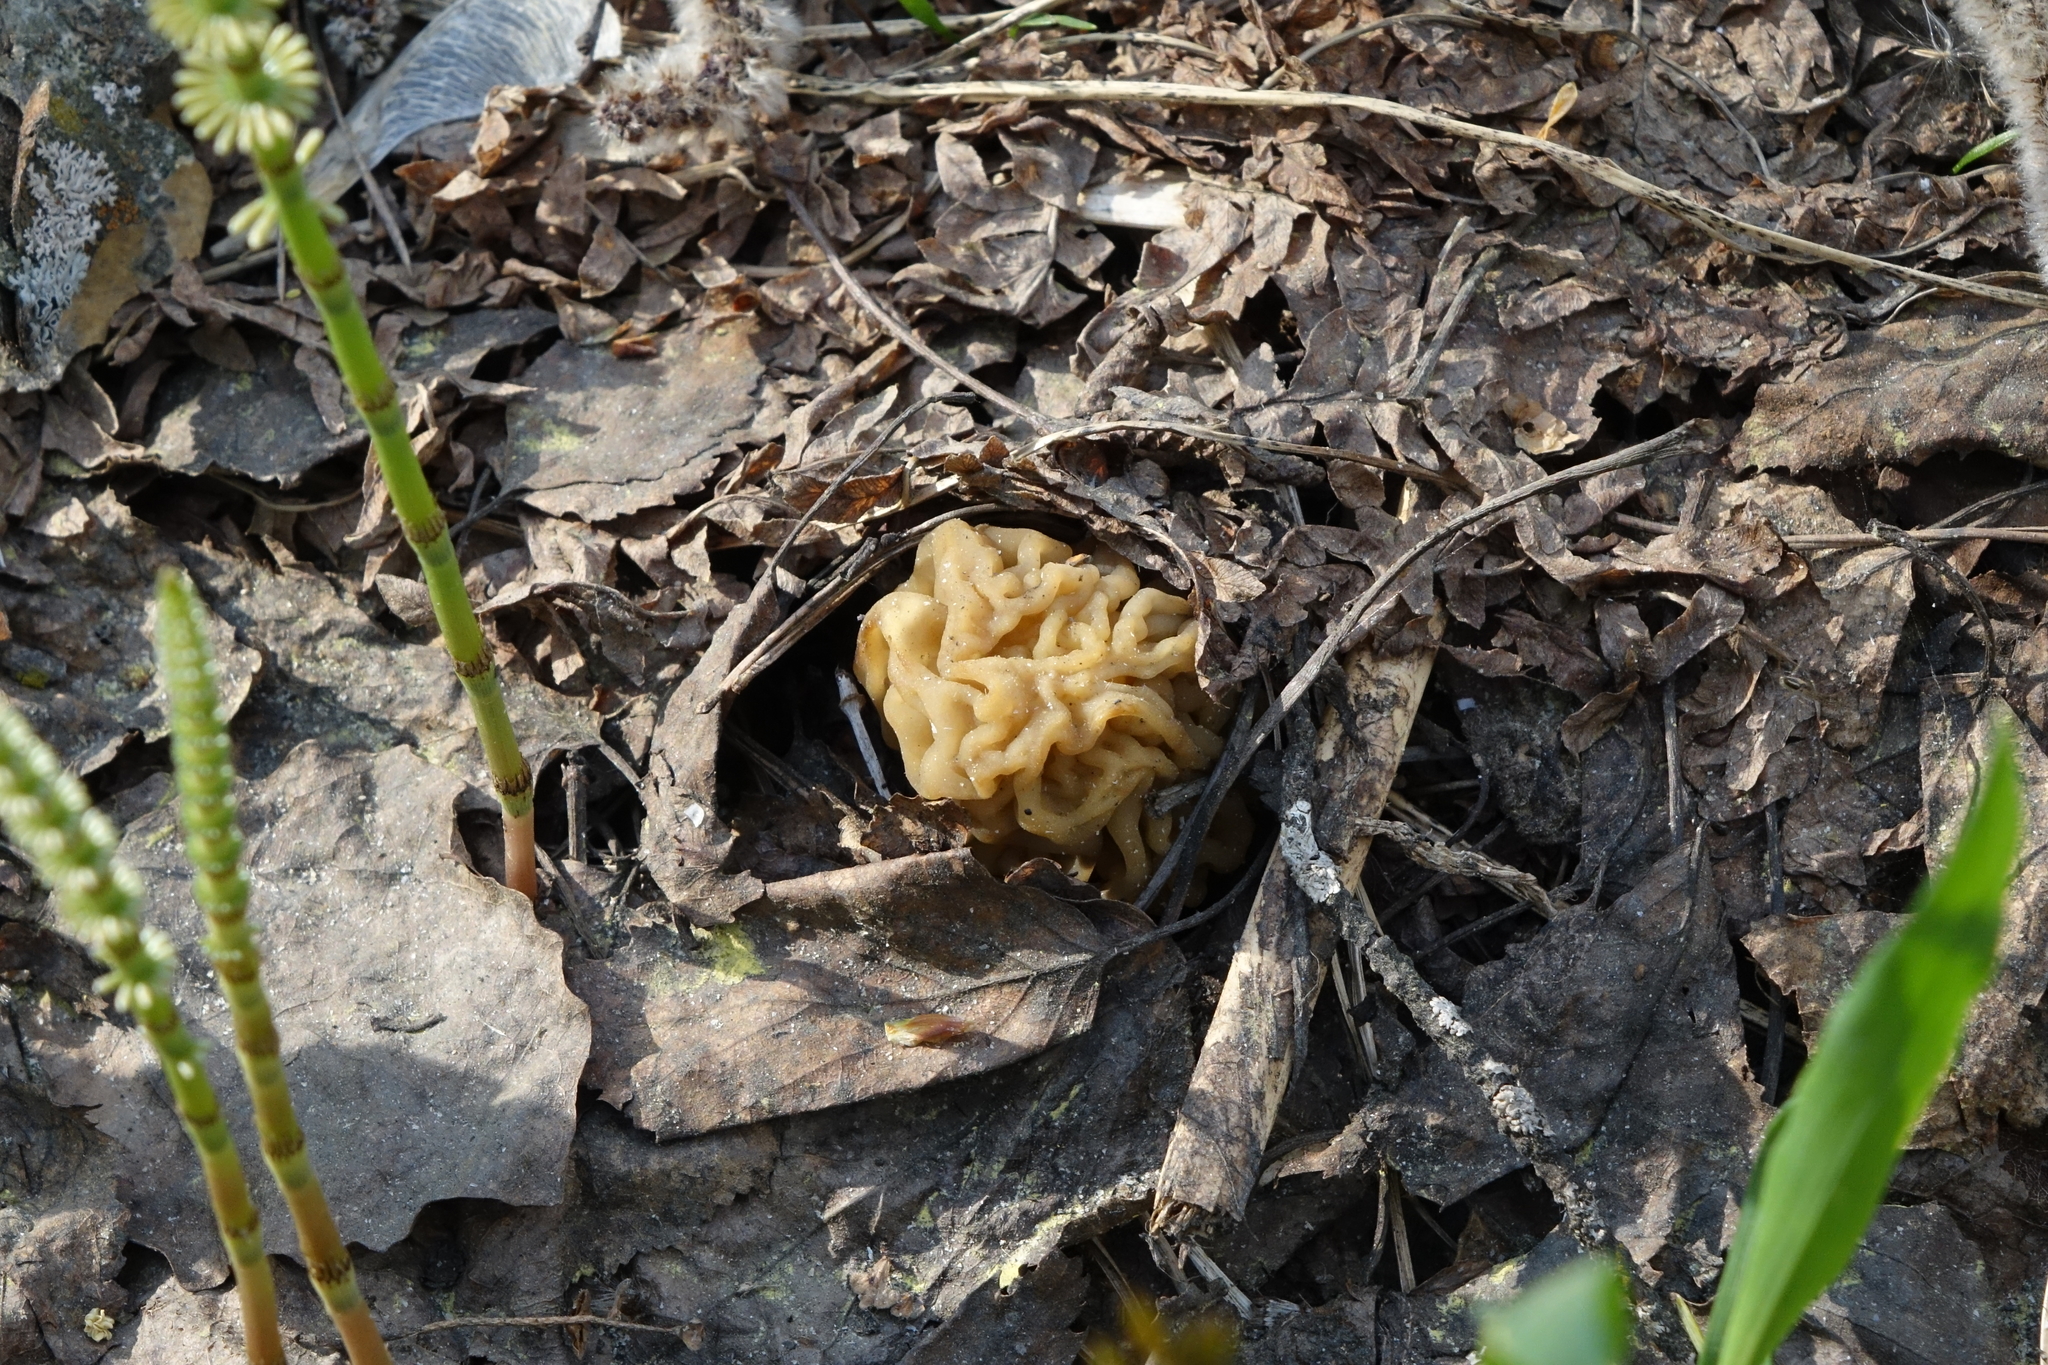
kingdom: Fungi
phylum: Ascomycota
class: Pezizomycetes
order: Pezizales
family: Morchellaceae
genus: Verpa
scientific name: Verpa bohemica
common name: Wrinkled thimble morel
